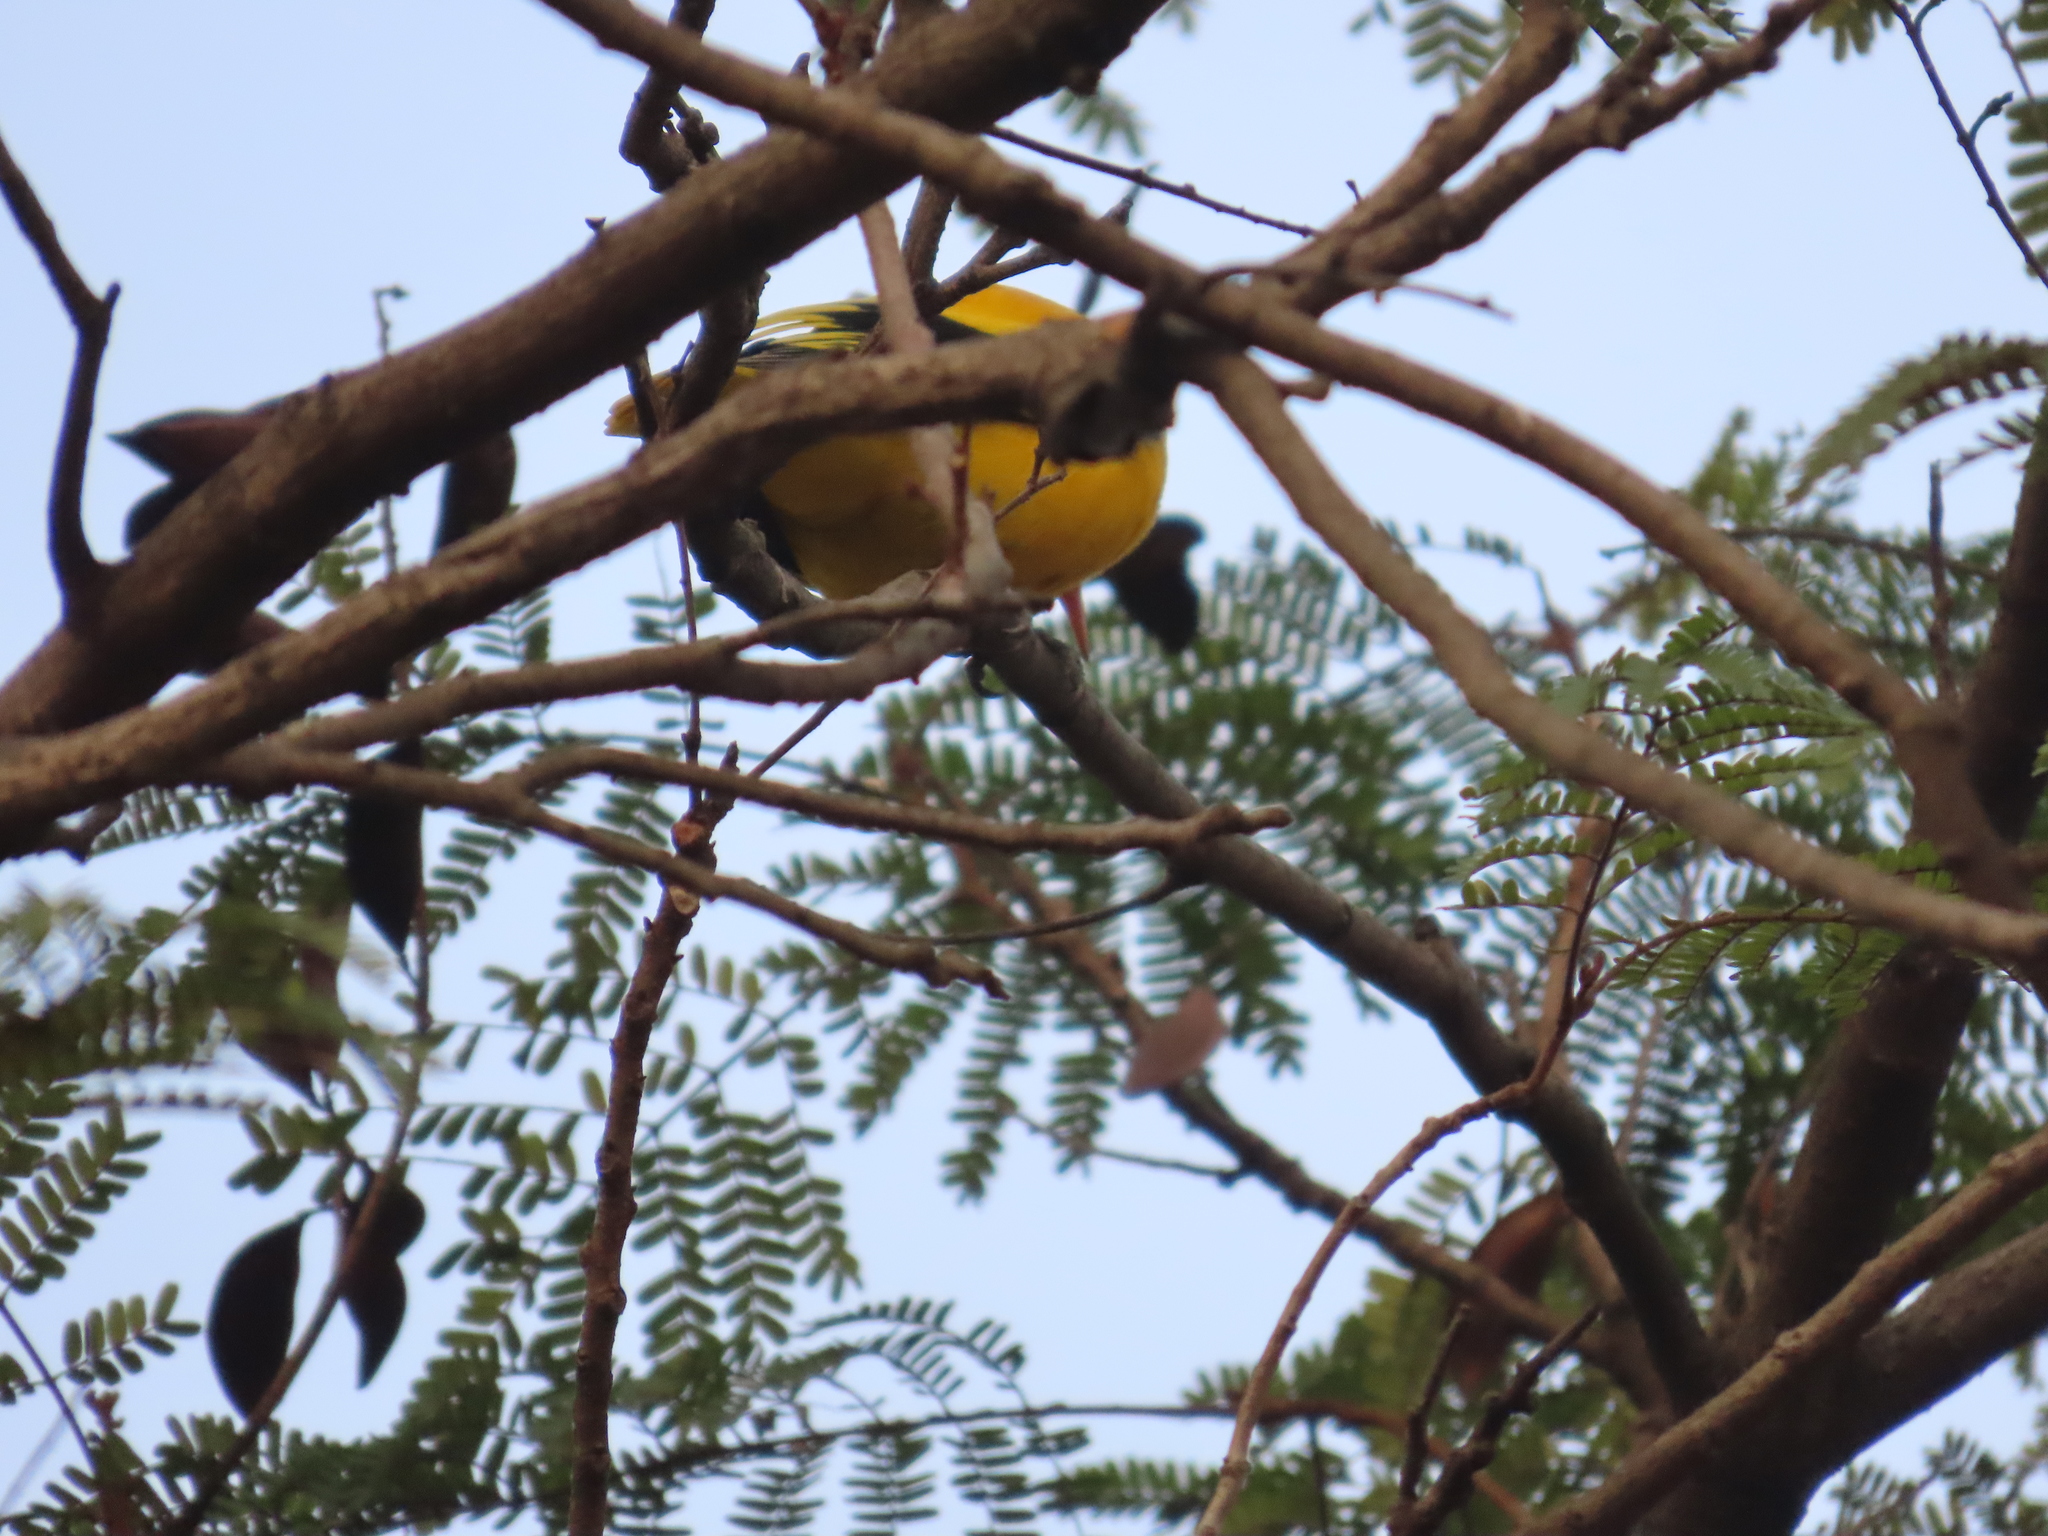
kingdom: Animalia
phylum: Chordata
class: Aves
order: Passeriformes
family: Oriolidae
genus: Oriolus
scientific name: Oriolus xanthornus
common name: Black-hooded oriole
